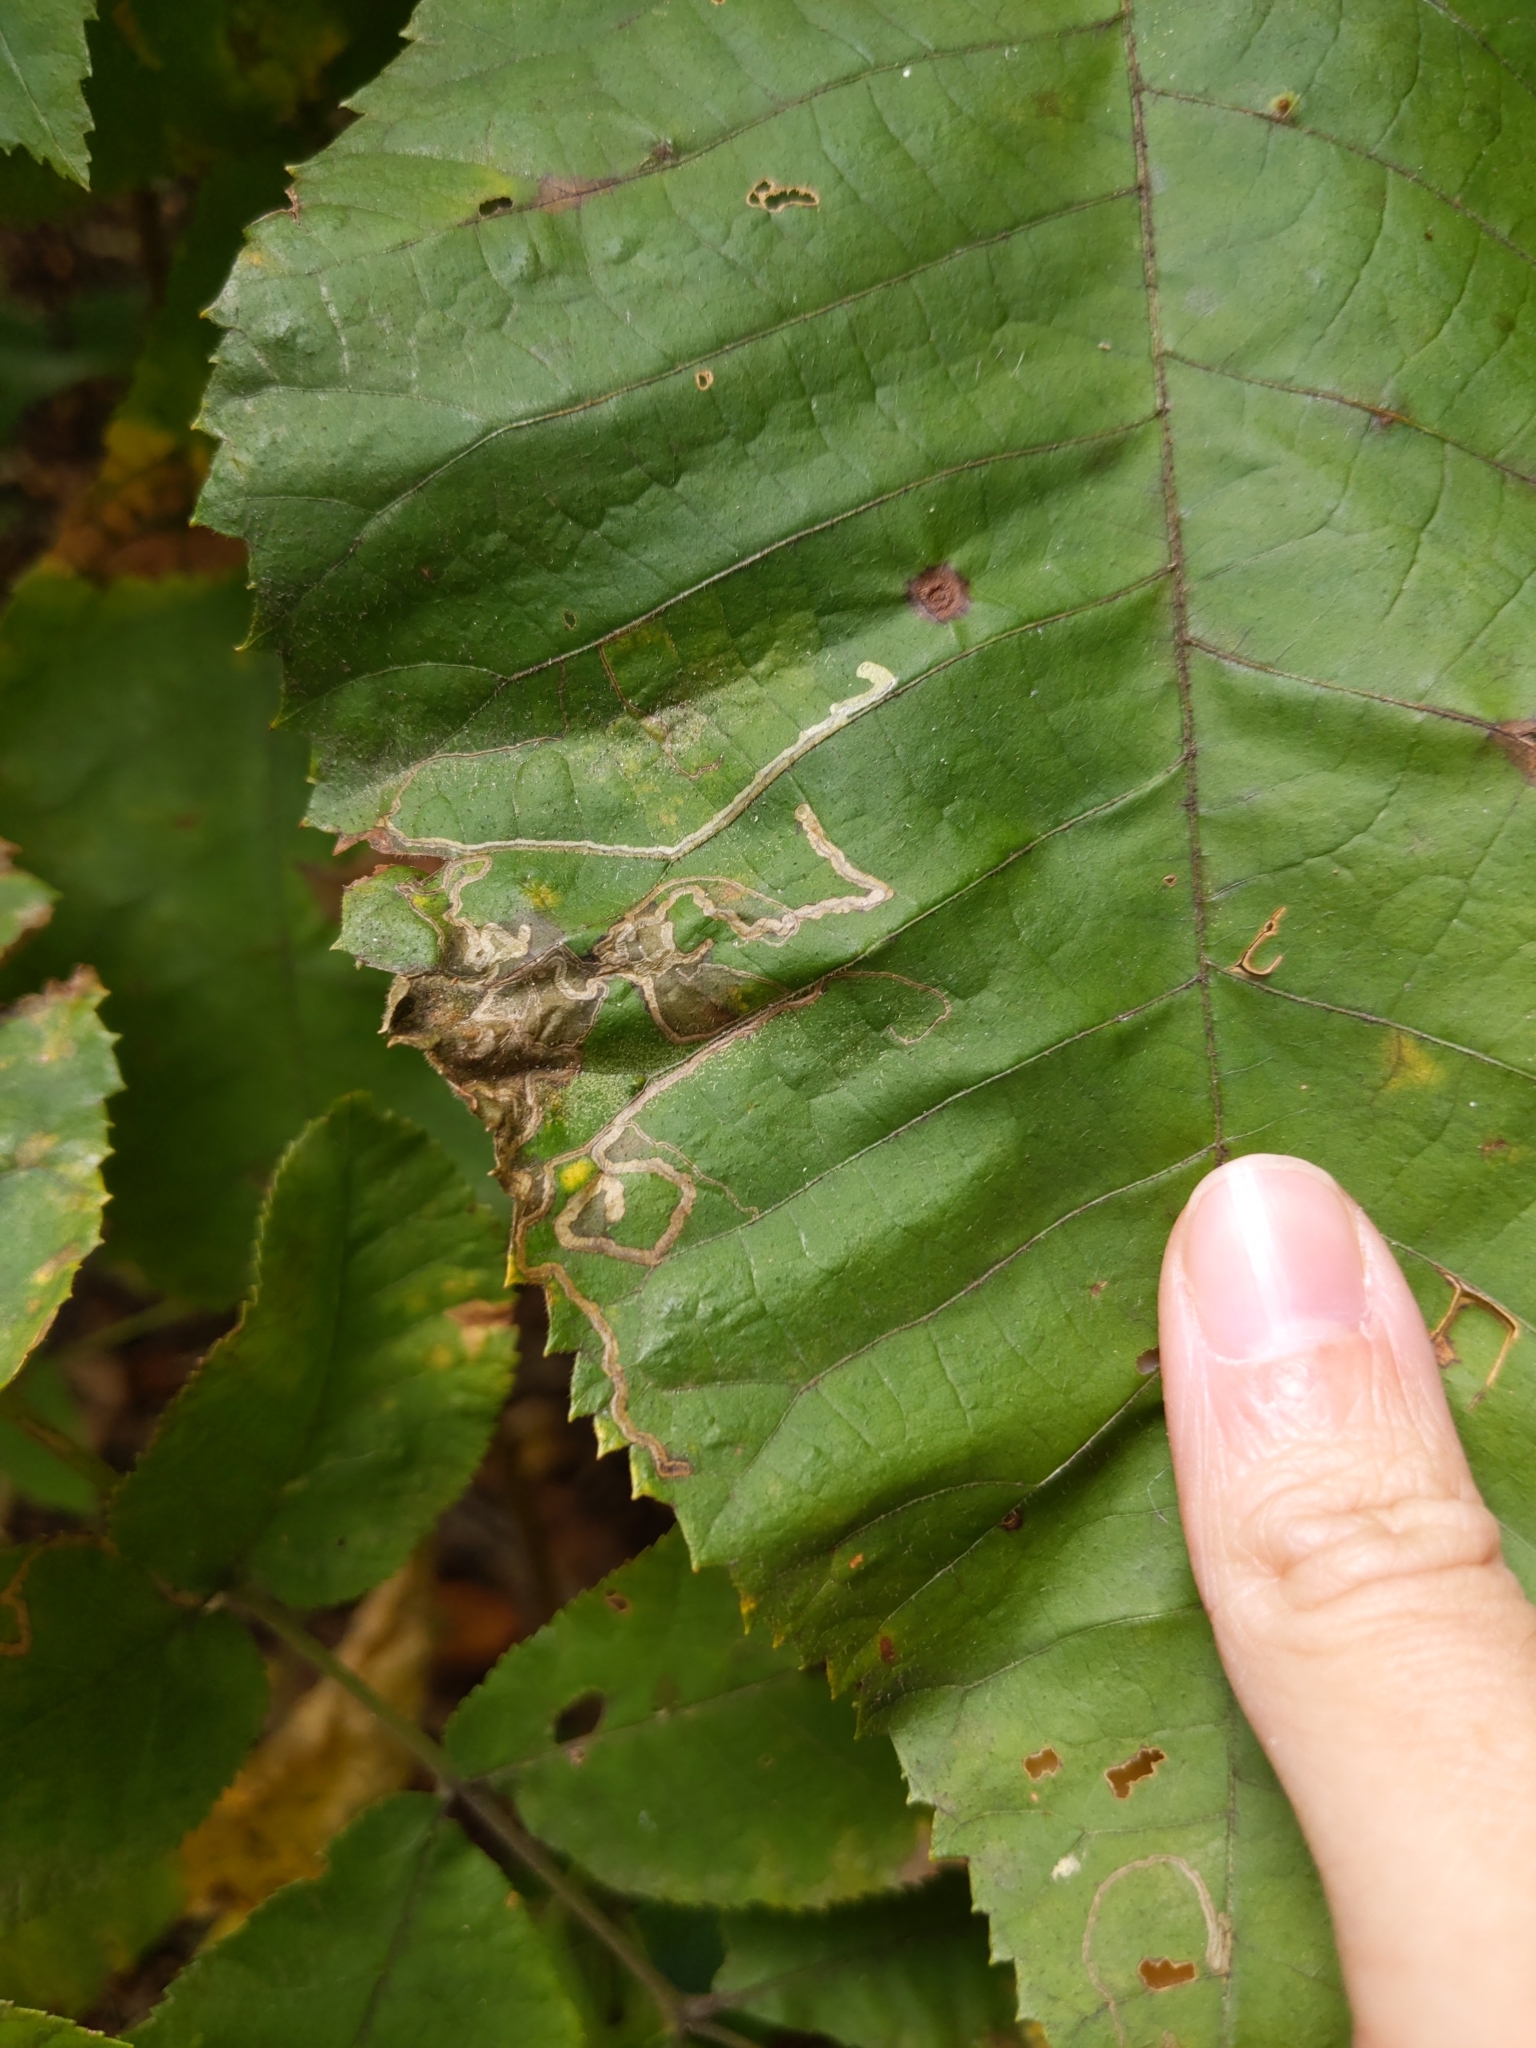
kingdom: Animalia
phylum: Arthropoda
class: Insecta
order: Lepidoptera
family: Nepticulidae
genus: Stigmella
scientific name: Stigmella caryaefoliella
